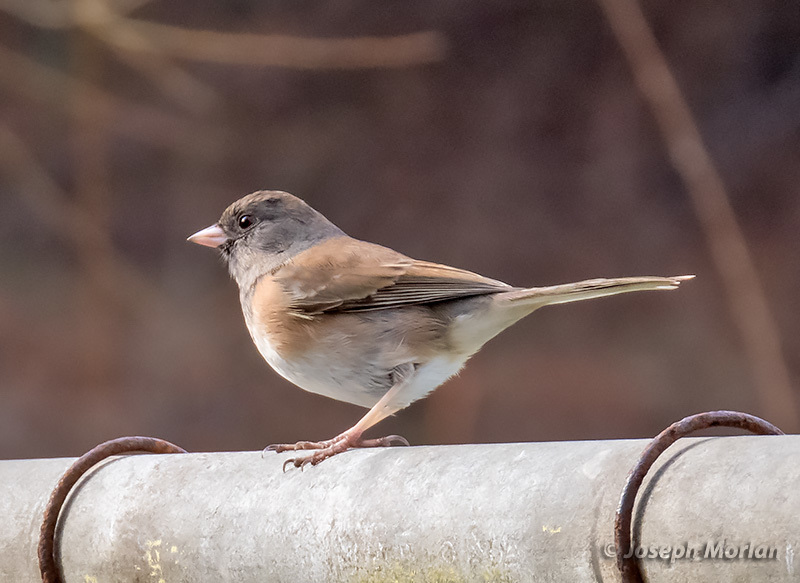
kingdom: Animalia
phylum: Chordata
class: Aves
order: Passeriformes
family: Passerellidae
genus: Junco
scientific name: Junco hyemalis
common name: Dark-eyed junco
